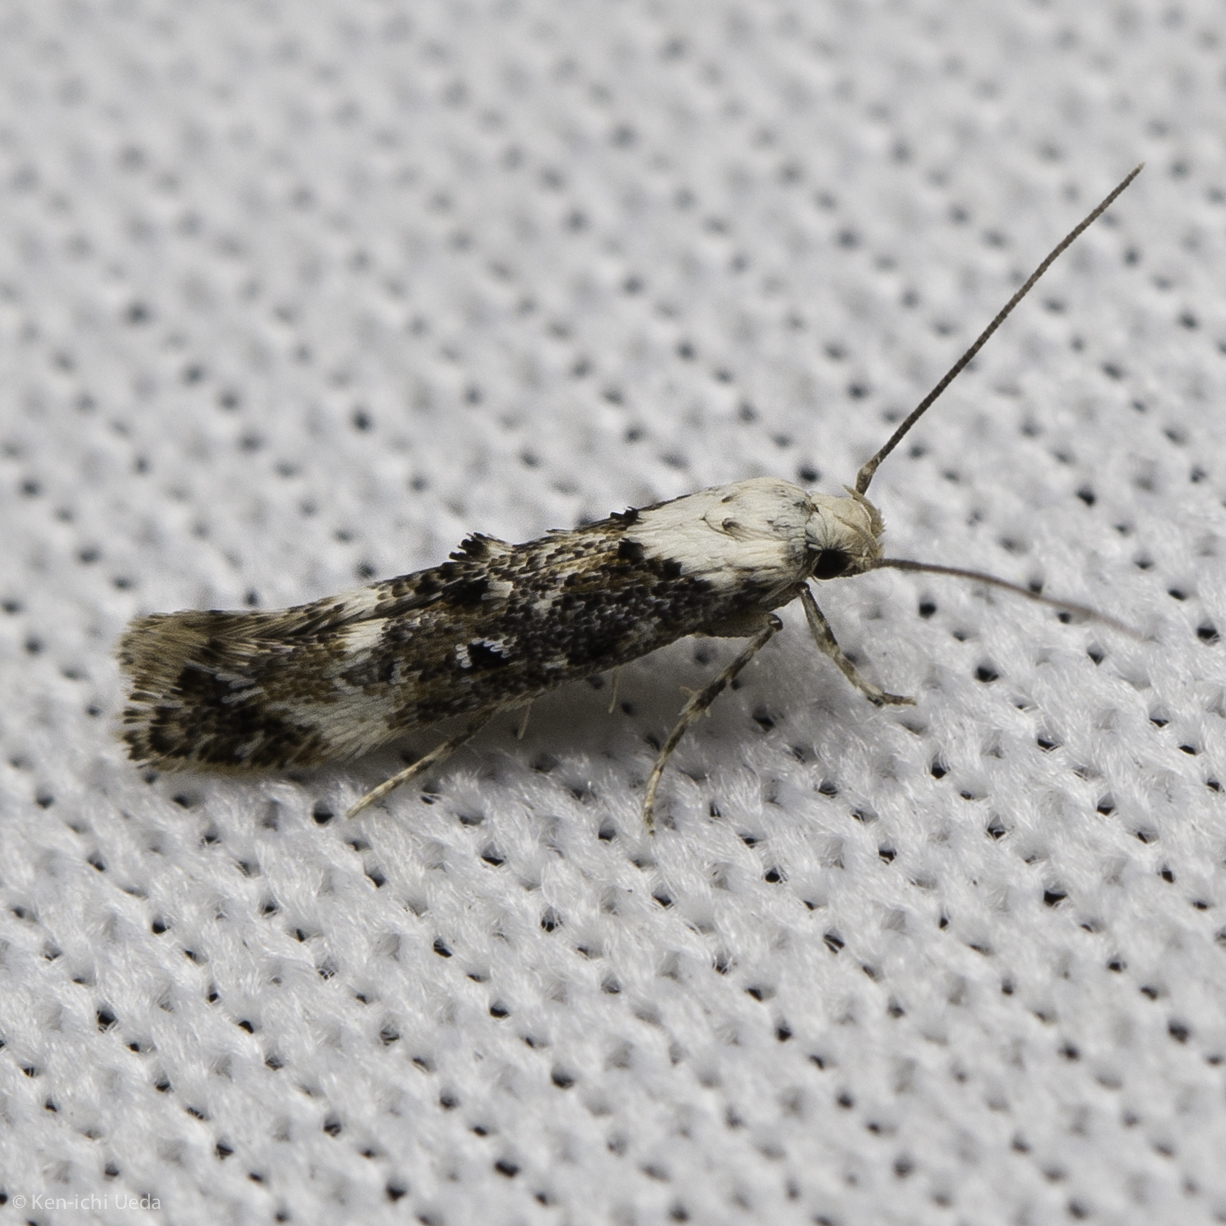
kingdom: Animalia
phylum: Arthropoda
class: Insecta
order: Lepidoptera
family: Momphidae
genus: Mompha
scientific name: Mompha albocapitella
